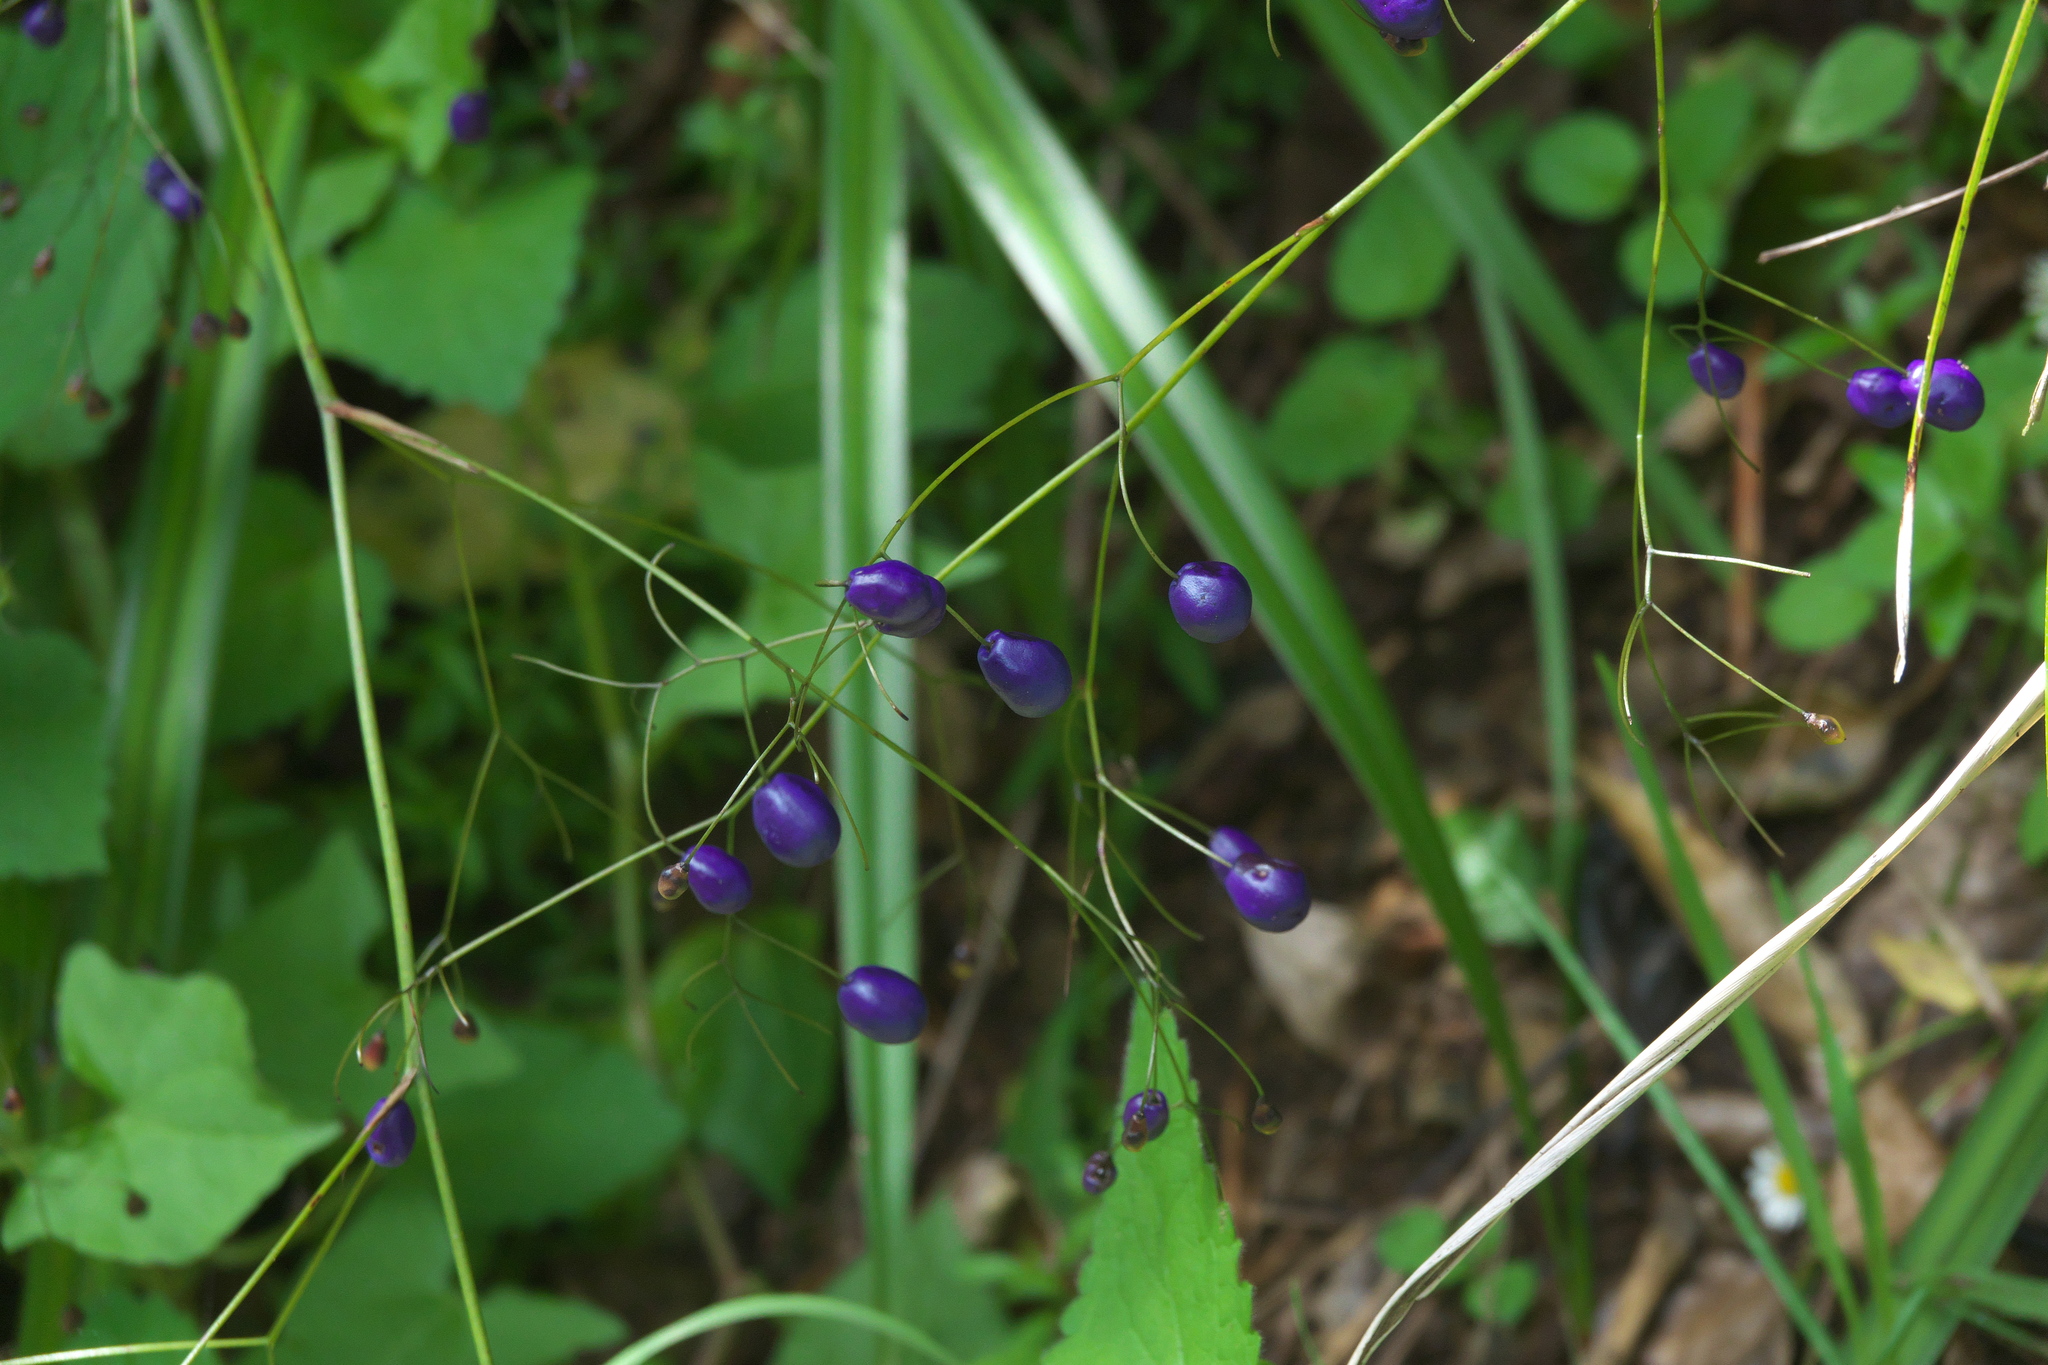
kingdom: Plantae
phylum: Tracheophyta
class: Liliopsida
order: Asparagales
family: Asphodelaceae
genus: Dianella
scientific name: Dianella nigra
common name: New zealand-blueberry
